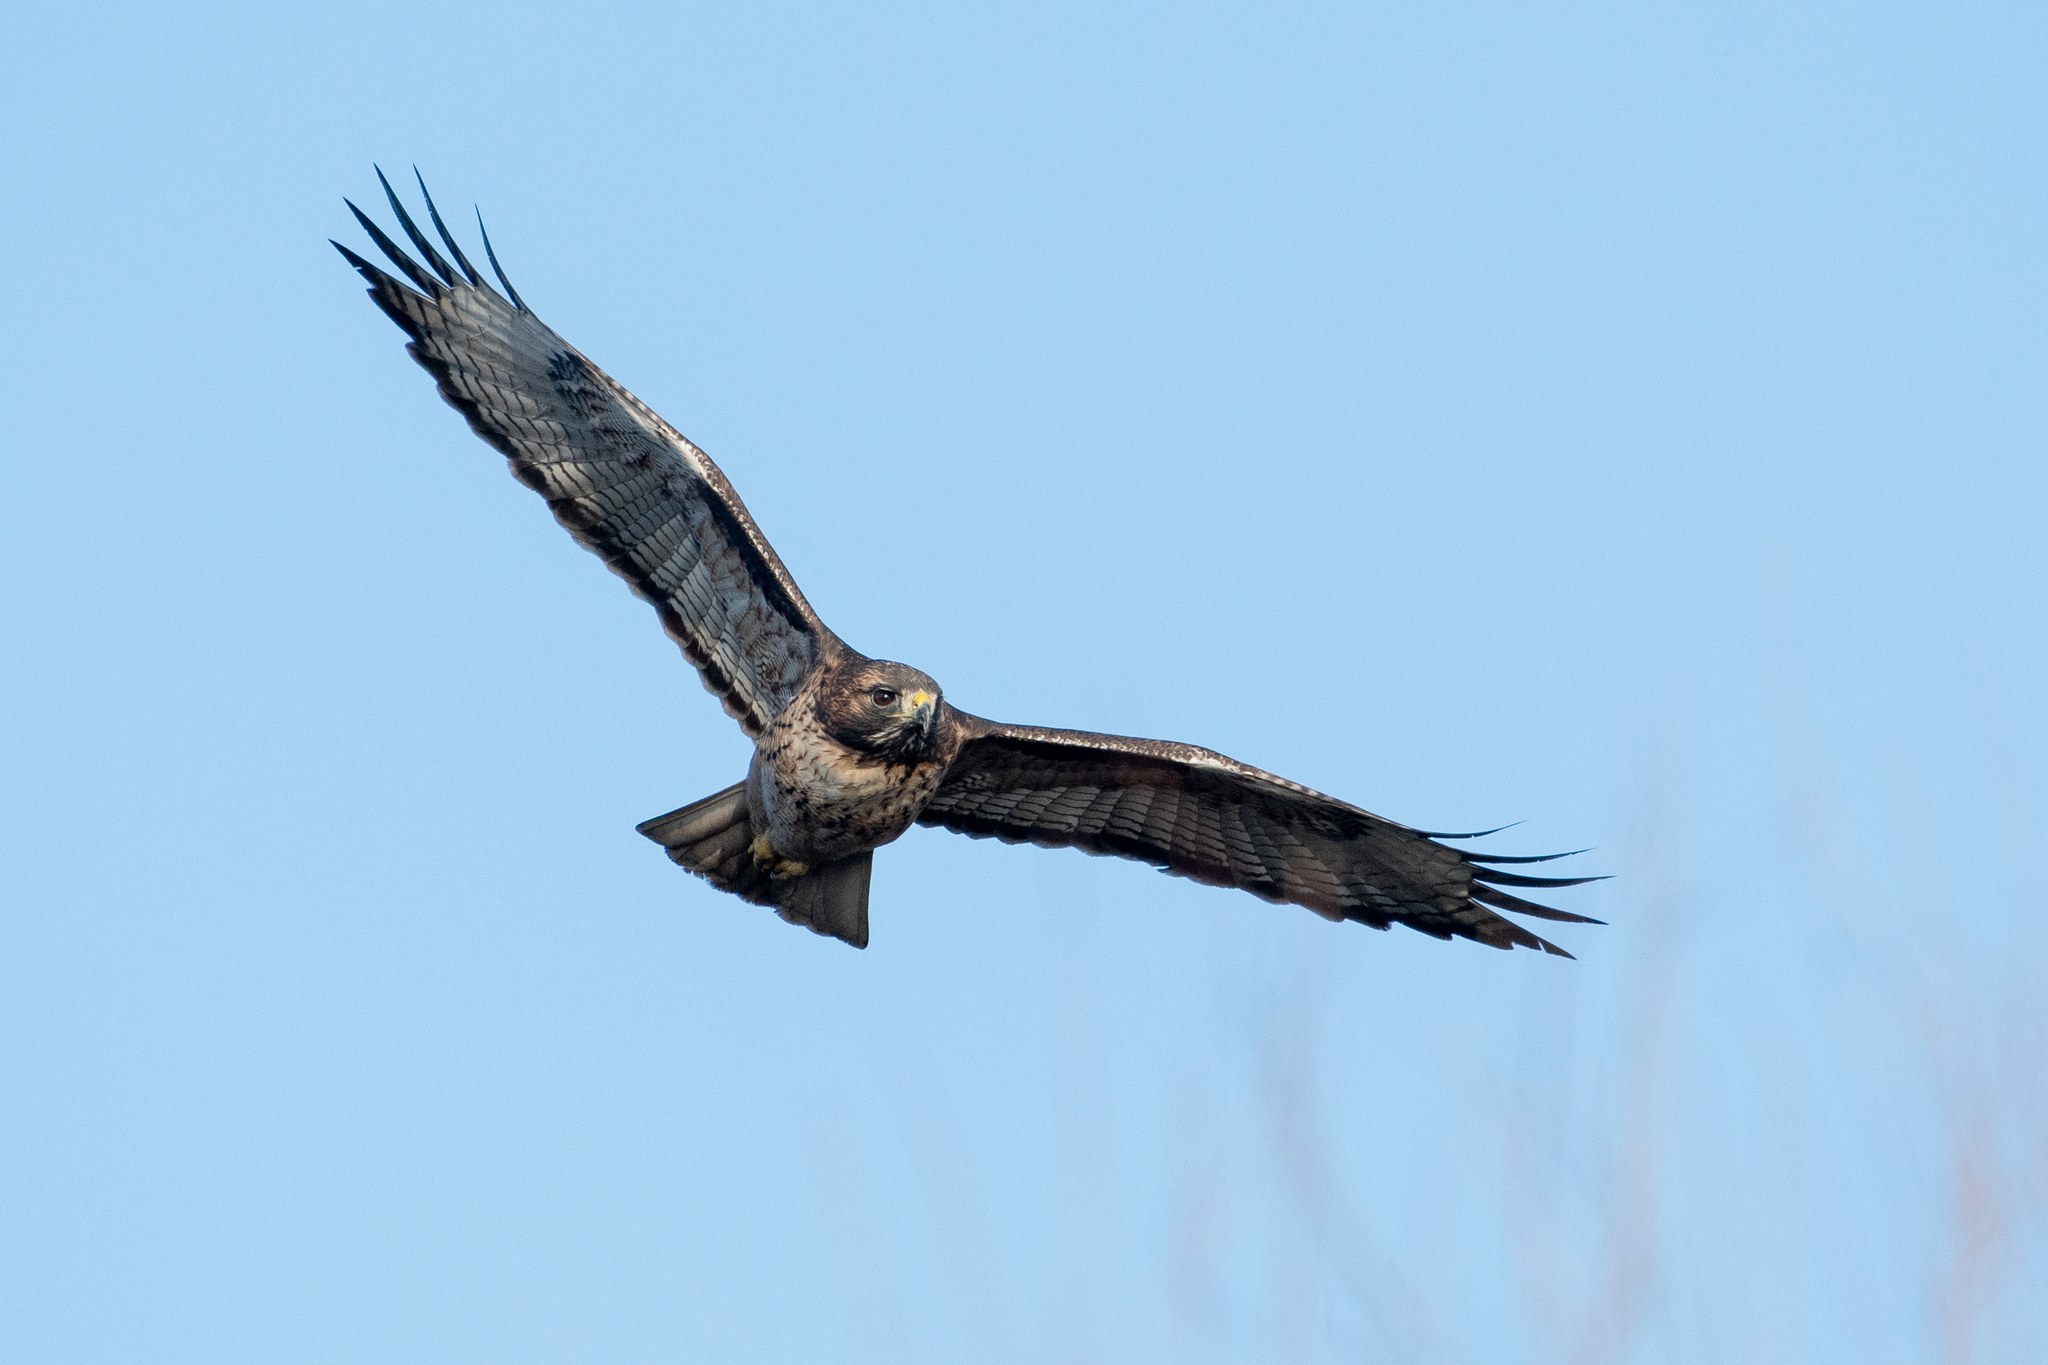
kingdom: Animalia
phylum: Chordata
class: Aves
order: Accipitriformes
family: Accipitridae
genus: Buteo
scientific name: Buteo jamaicensis
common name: Red-tailed hawk
